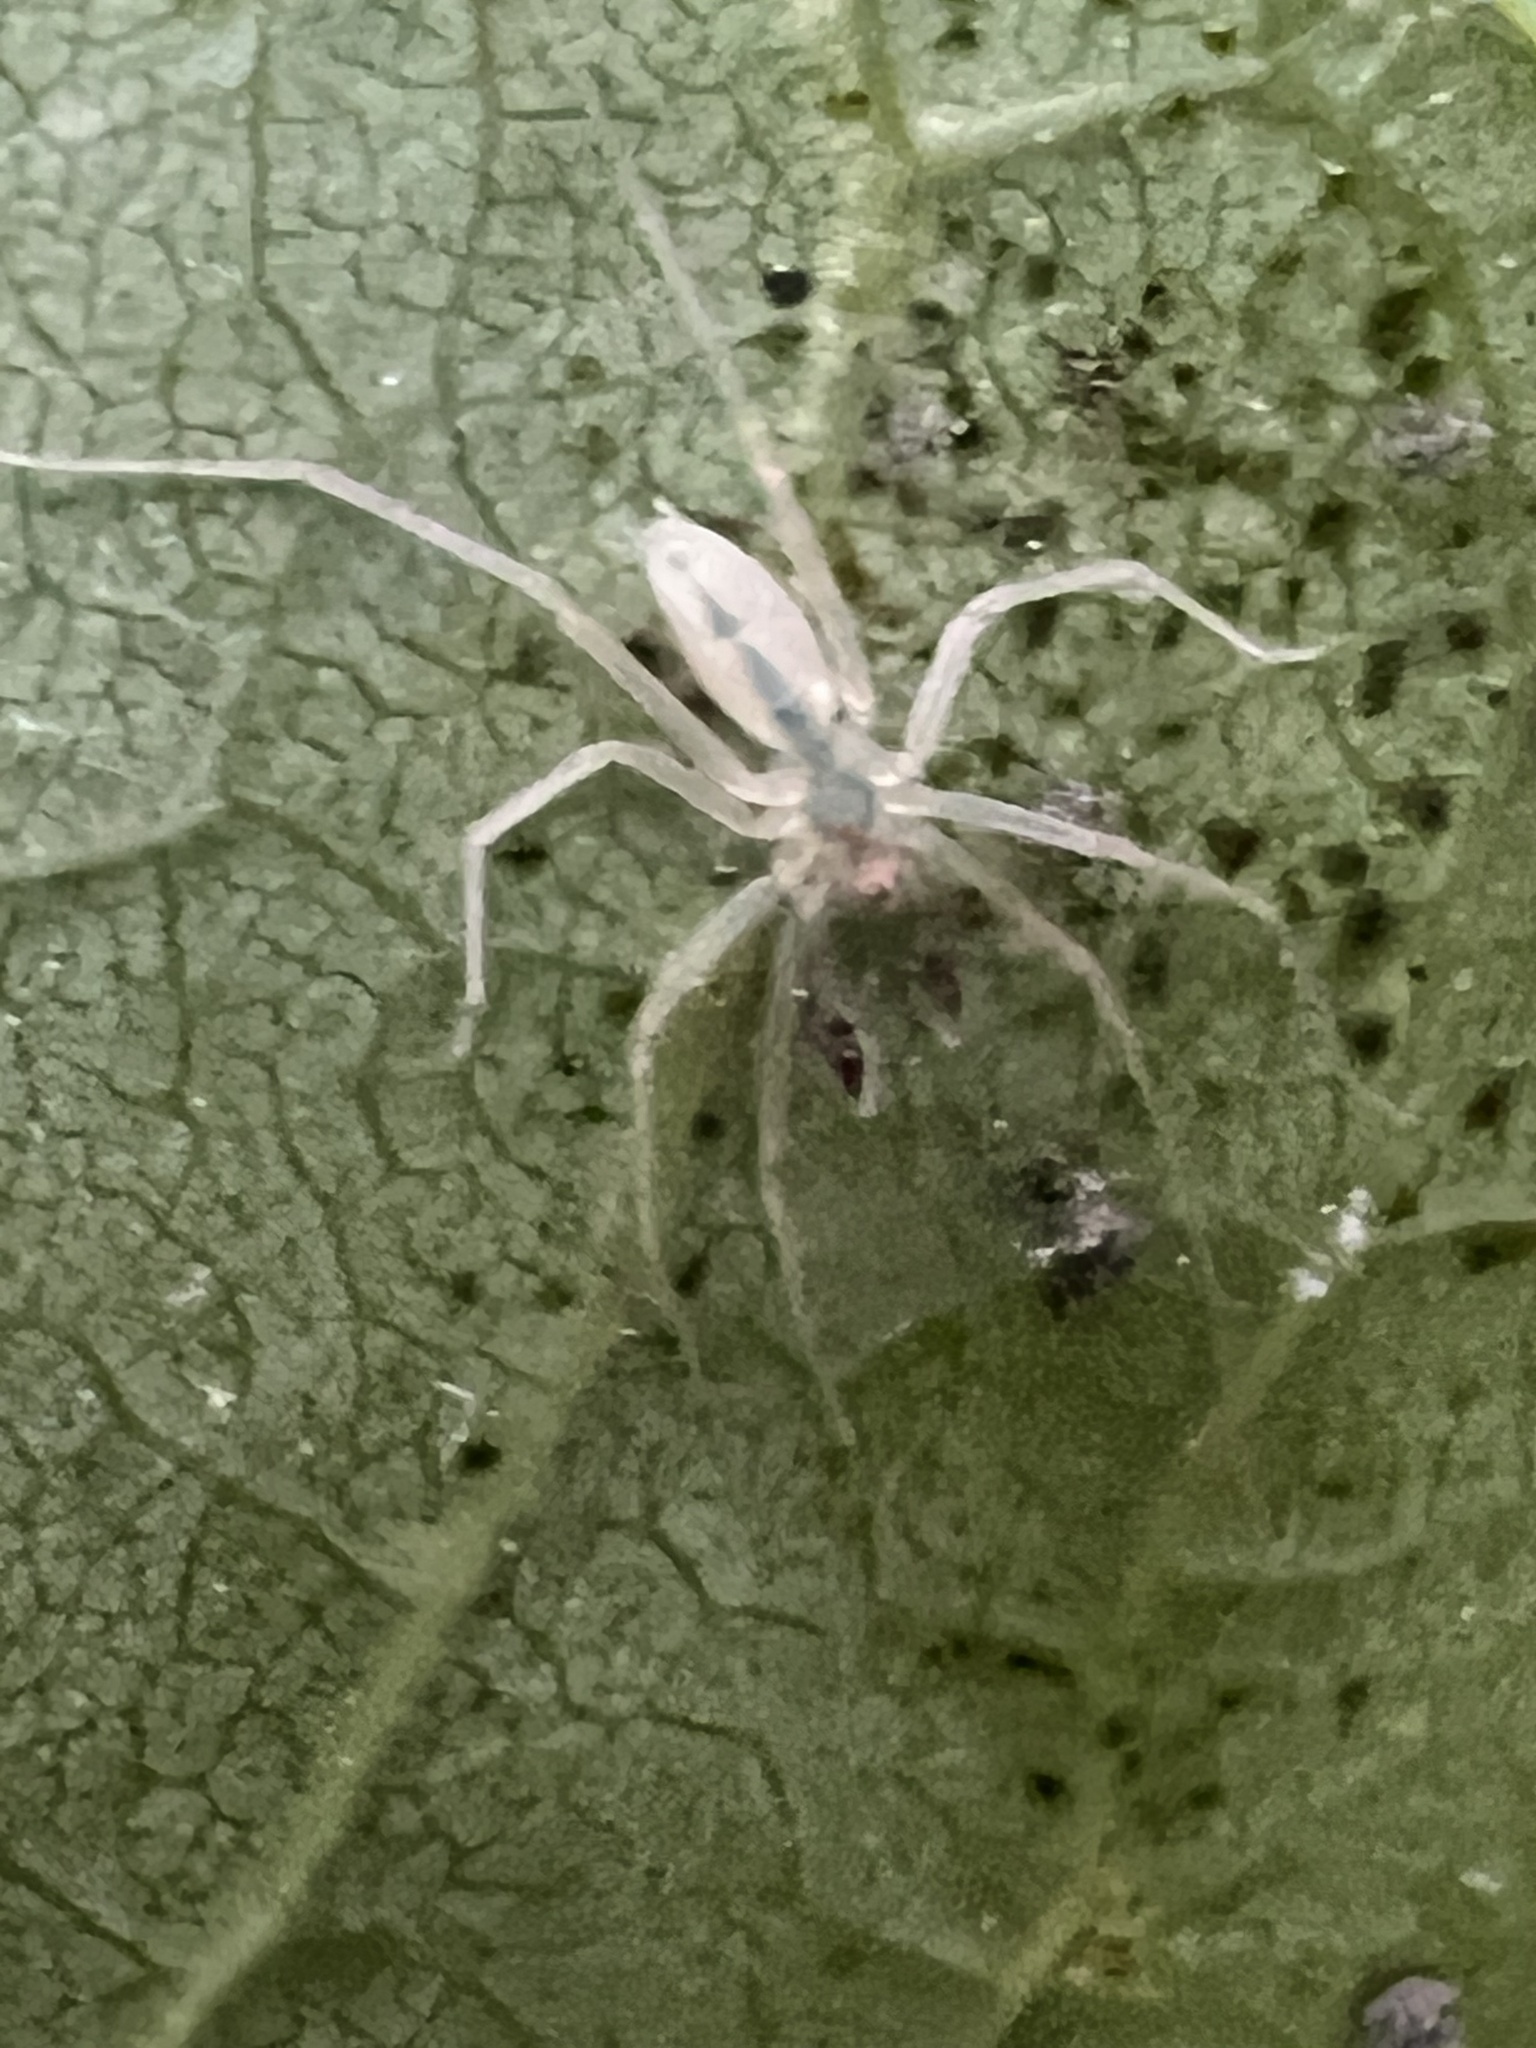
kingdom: Animalia
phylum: Arthropoda
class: Arachnida
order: Araneae
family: Anyphaenidae
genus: Wulfila
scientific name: Wulfila albens
